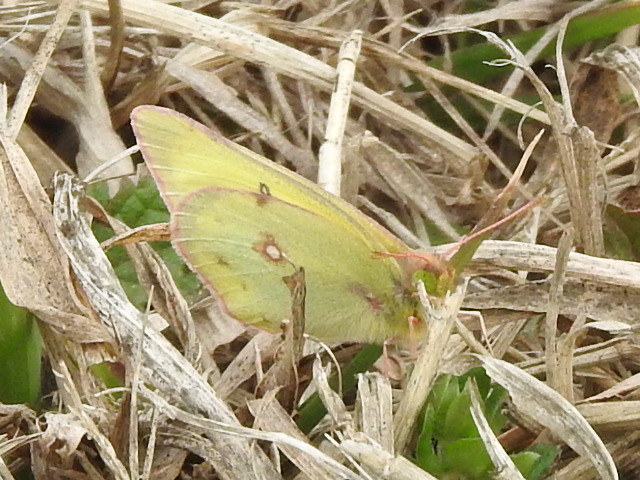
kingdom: Animalia
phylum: Arthropoda
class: Insecta
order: Lepidoptera
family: Pieridae
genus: Colias
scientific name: Colias eurytheme
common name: Alfalfa butterfly
